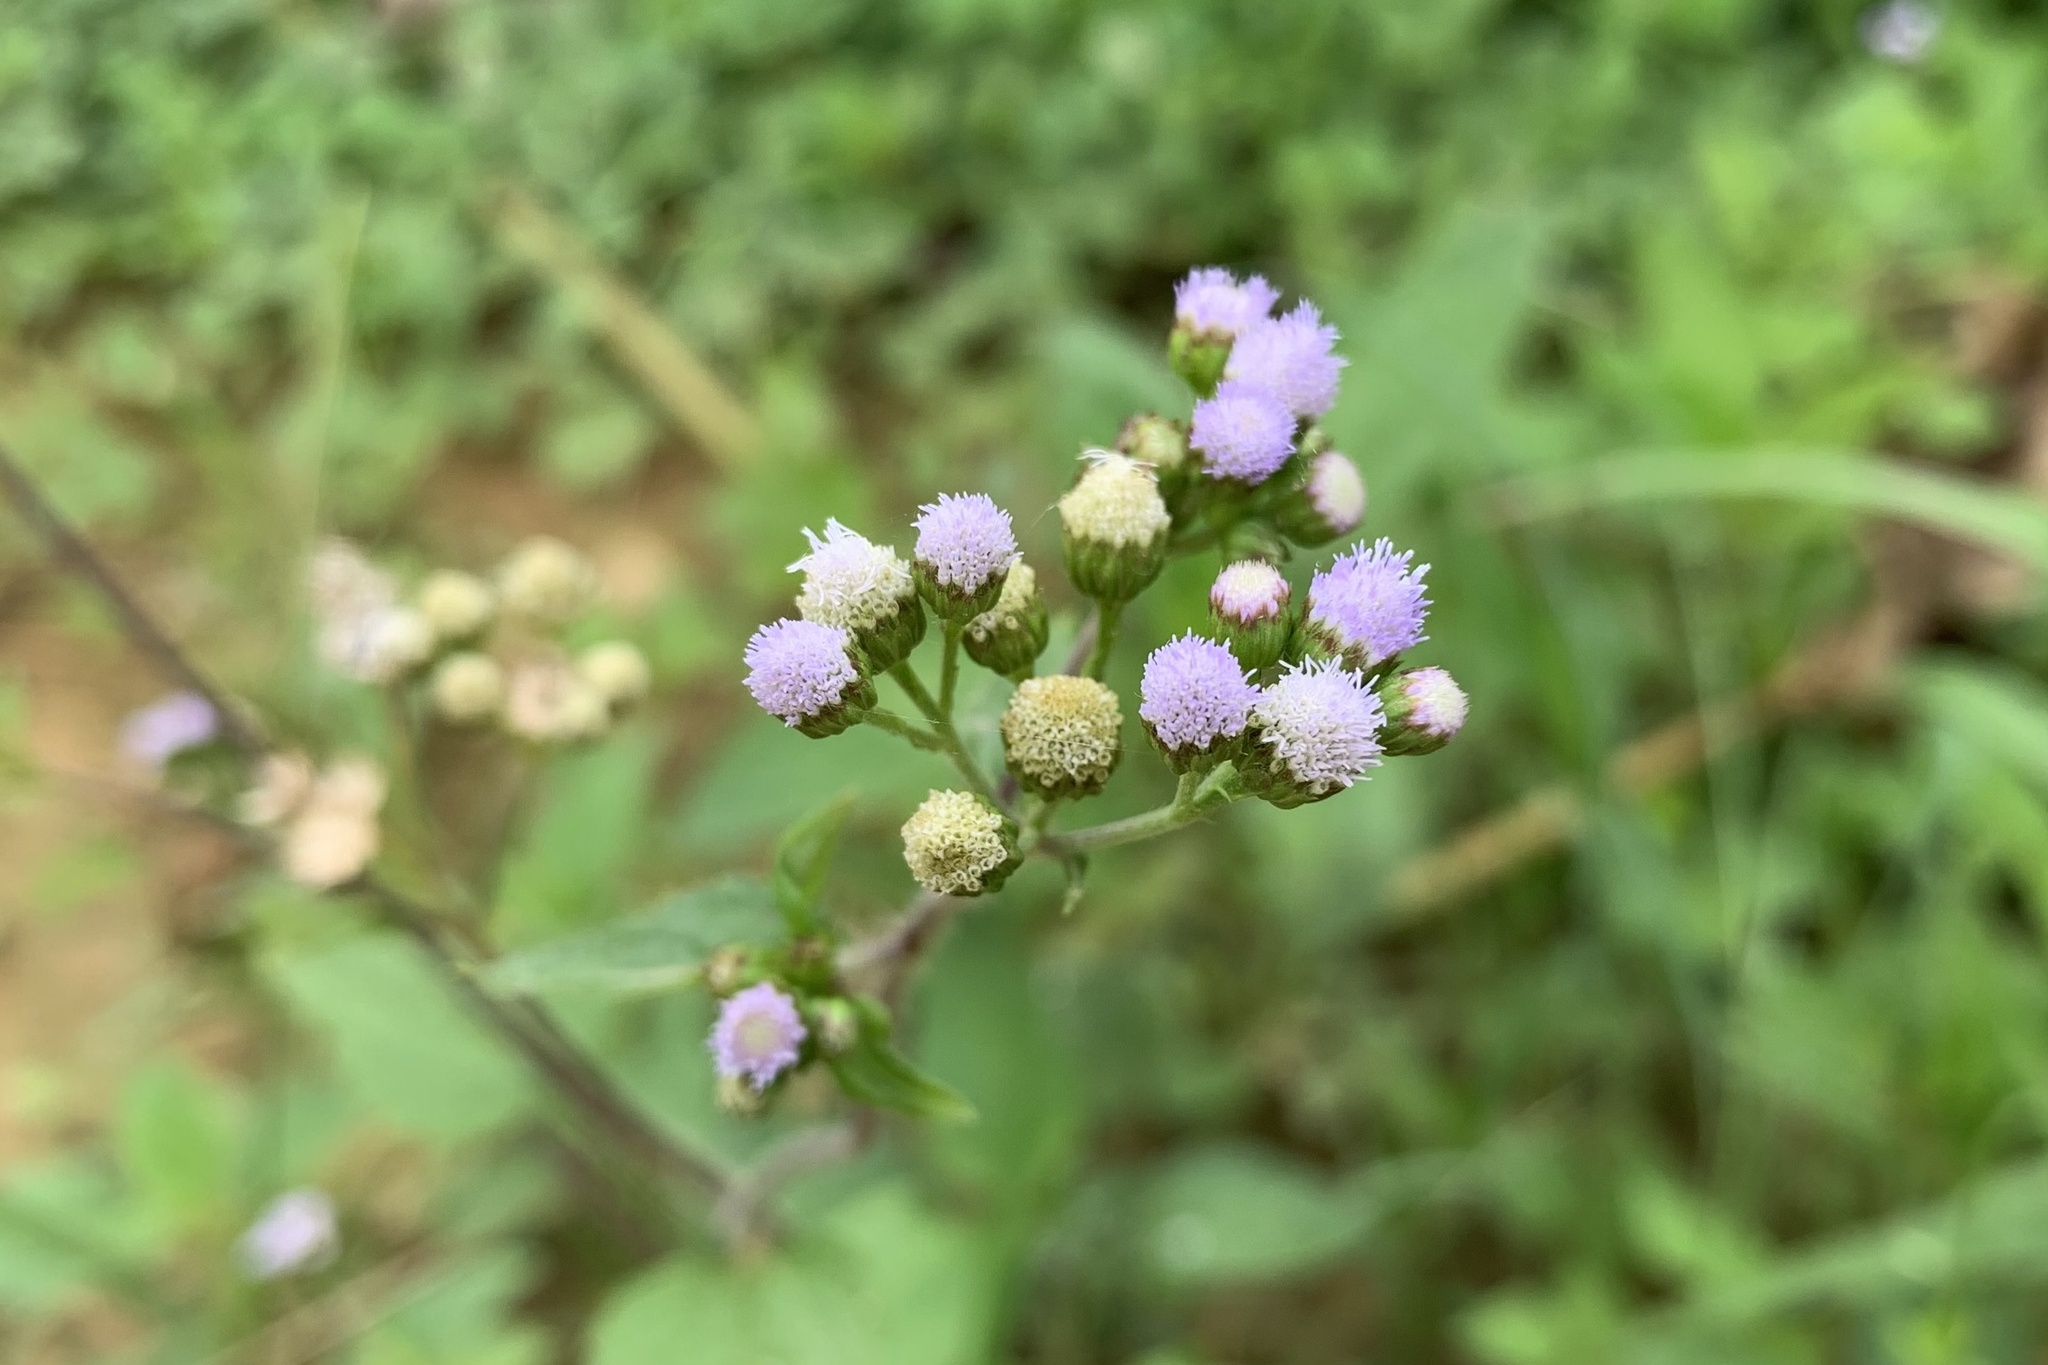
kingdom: Plantae
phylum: Tracheophyta
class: Magnoliopsida
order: Asterales
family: Asteraceae
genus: Ageratum
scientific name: Ageratum conyzoides
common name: Tropical whiteweed
